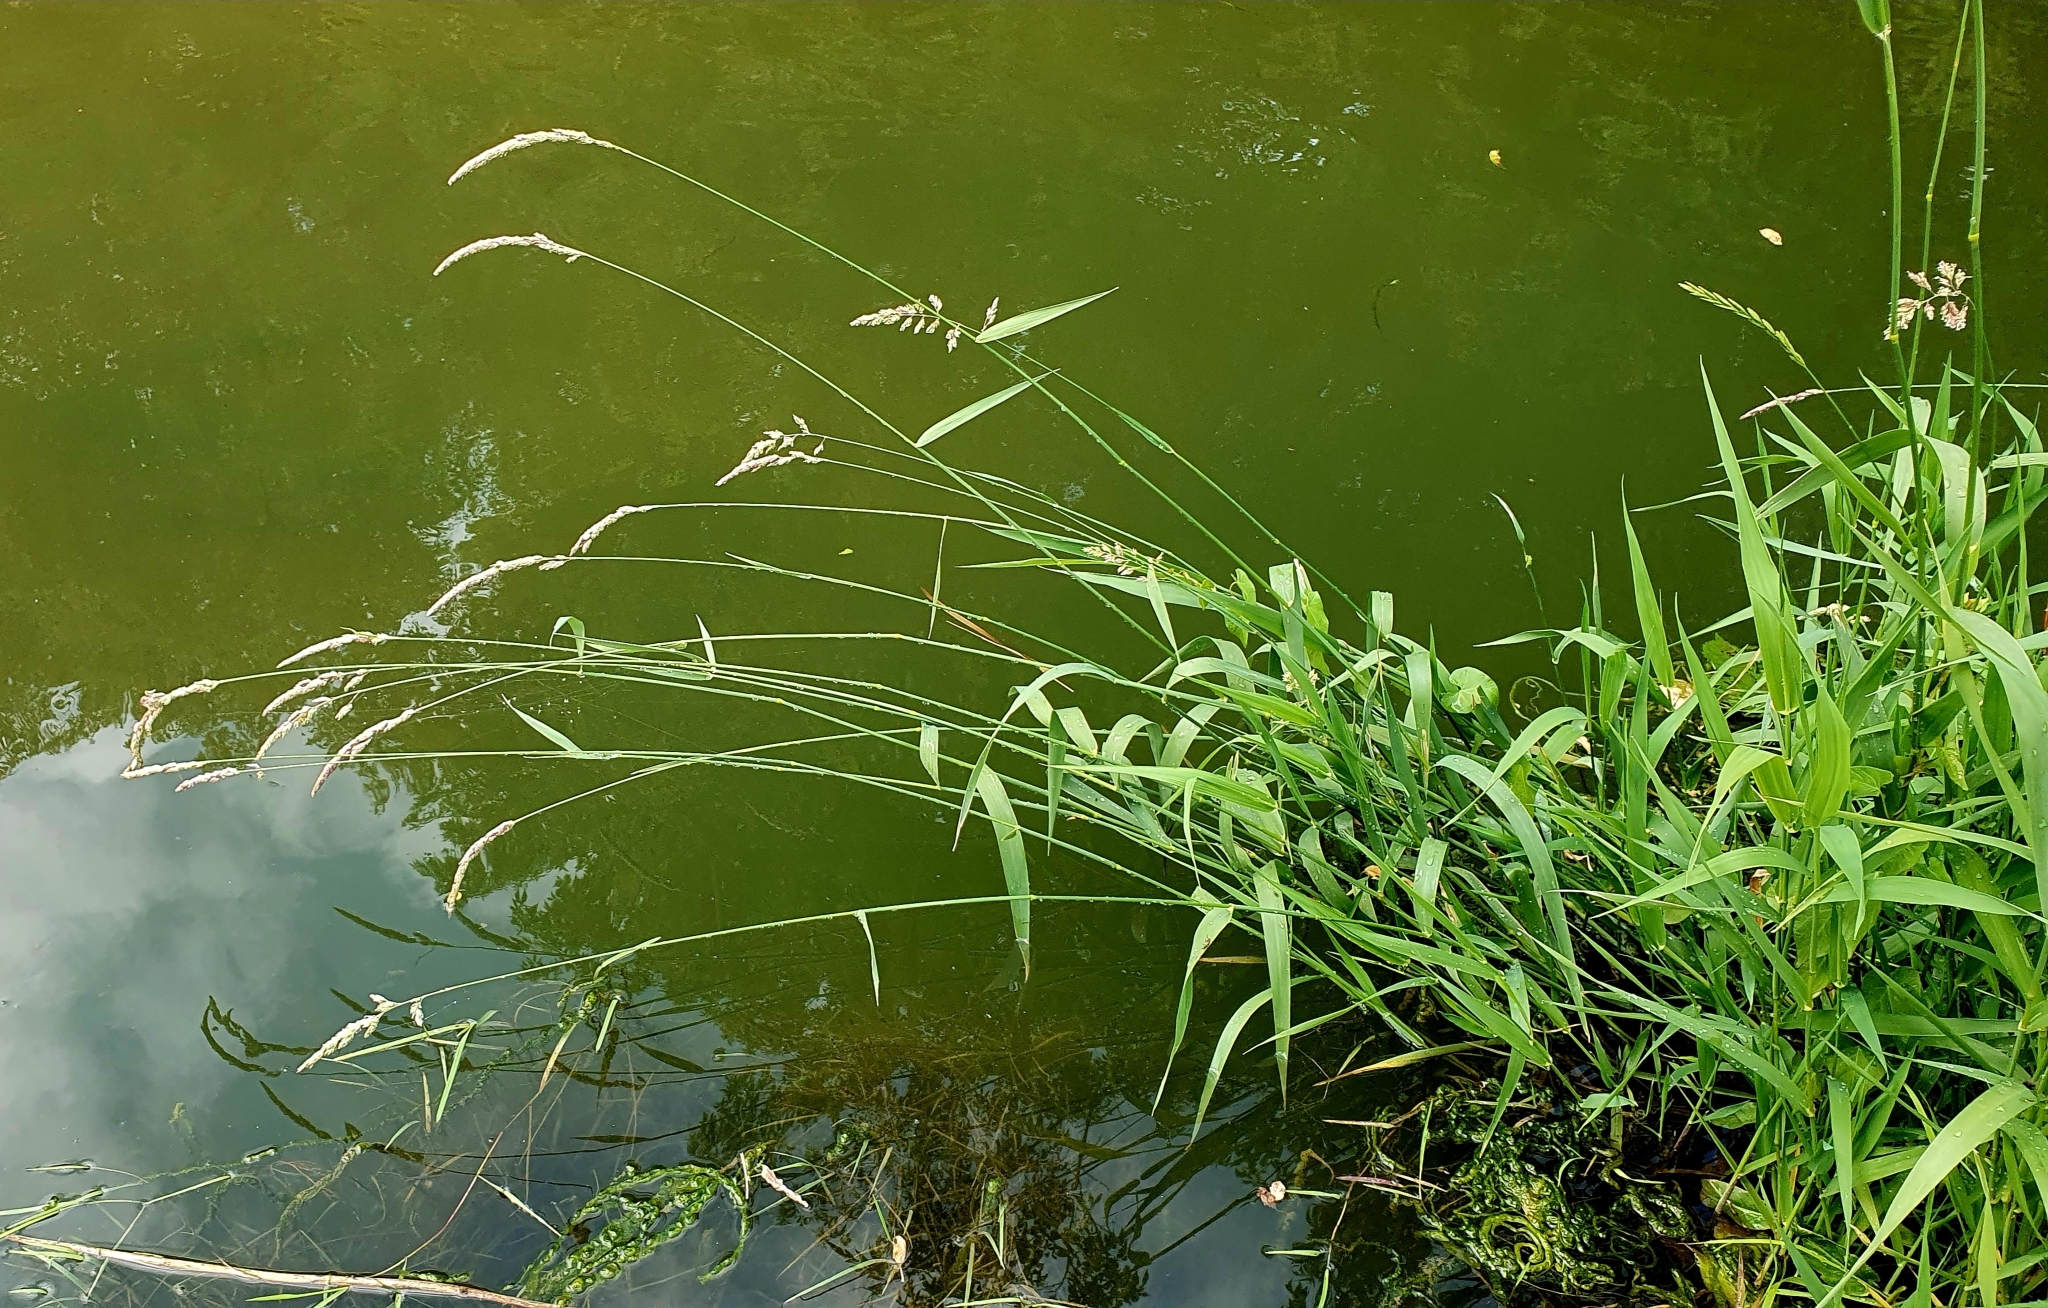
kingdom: Plantae
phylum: Tracheophyta
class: Liliopsida
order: Poales
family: Poaceae
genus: Phalaris
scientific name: Phalaris arundinacea
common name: Reed canary-grass
